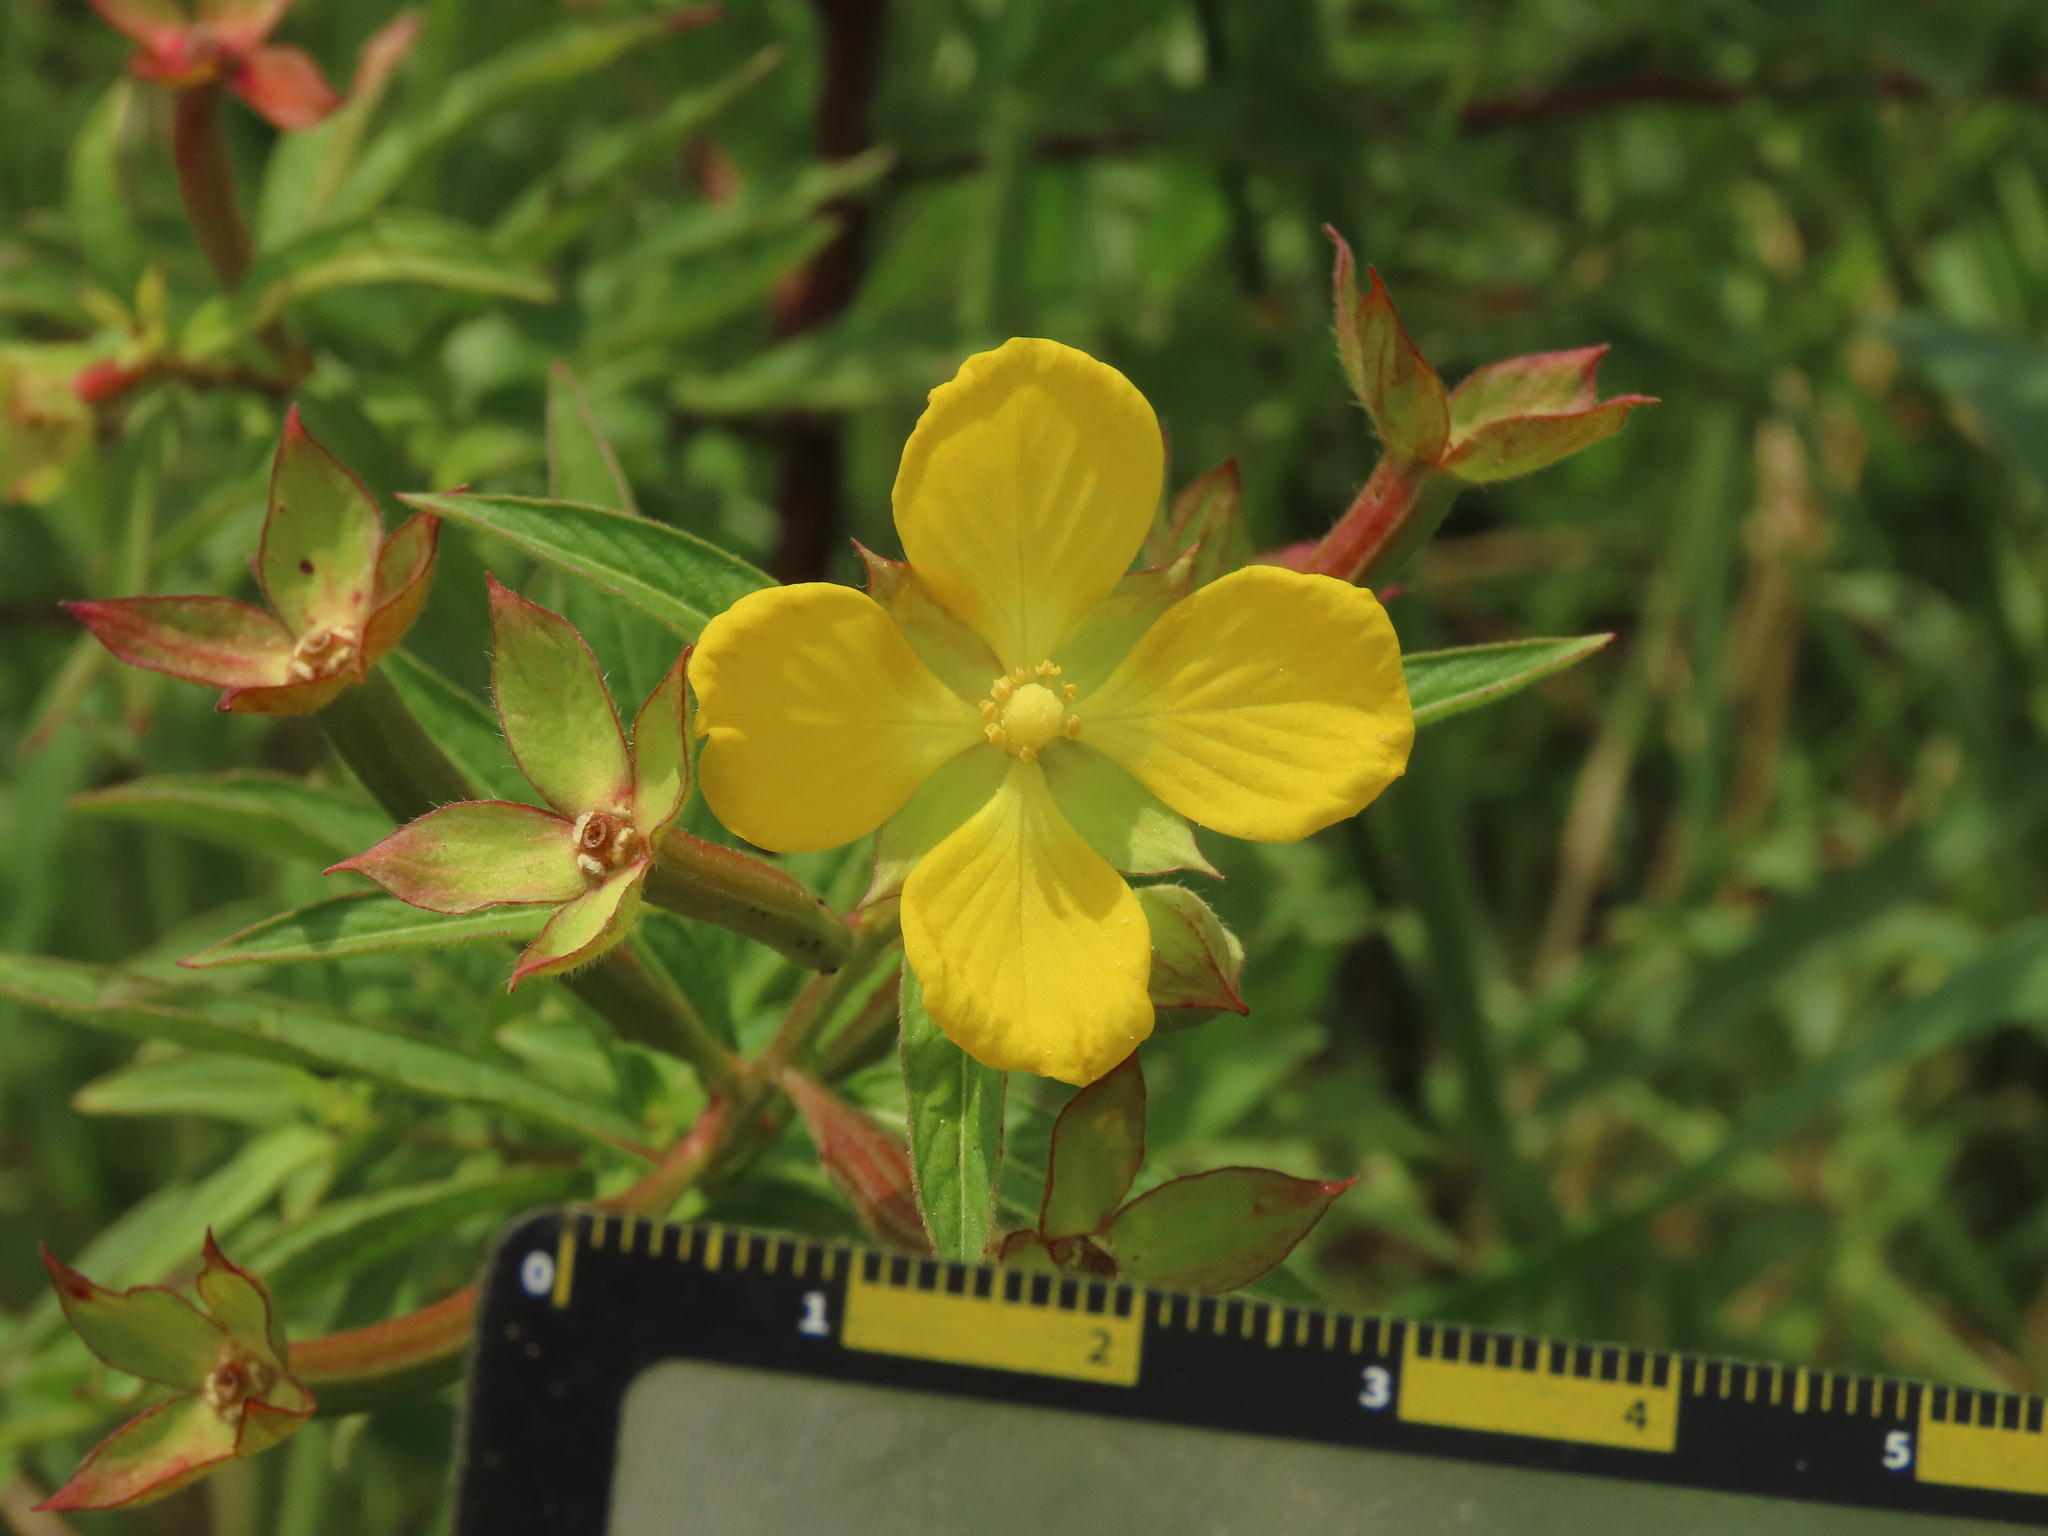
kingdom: Plantae
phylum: Tracheophyta
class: Magnoliopsida
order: Myrtales
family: Onagraceae
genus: Ludwigia
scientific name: Ludwigia octovalvis
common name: Water-primrose
